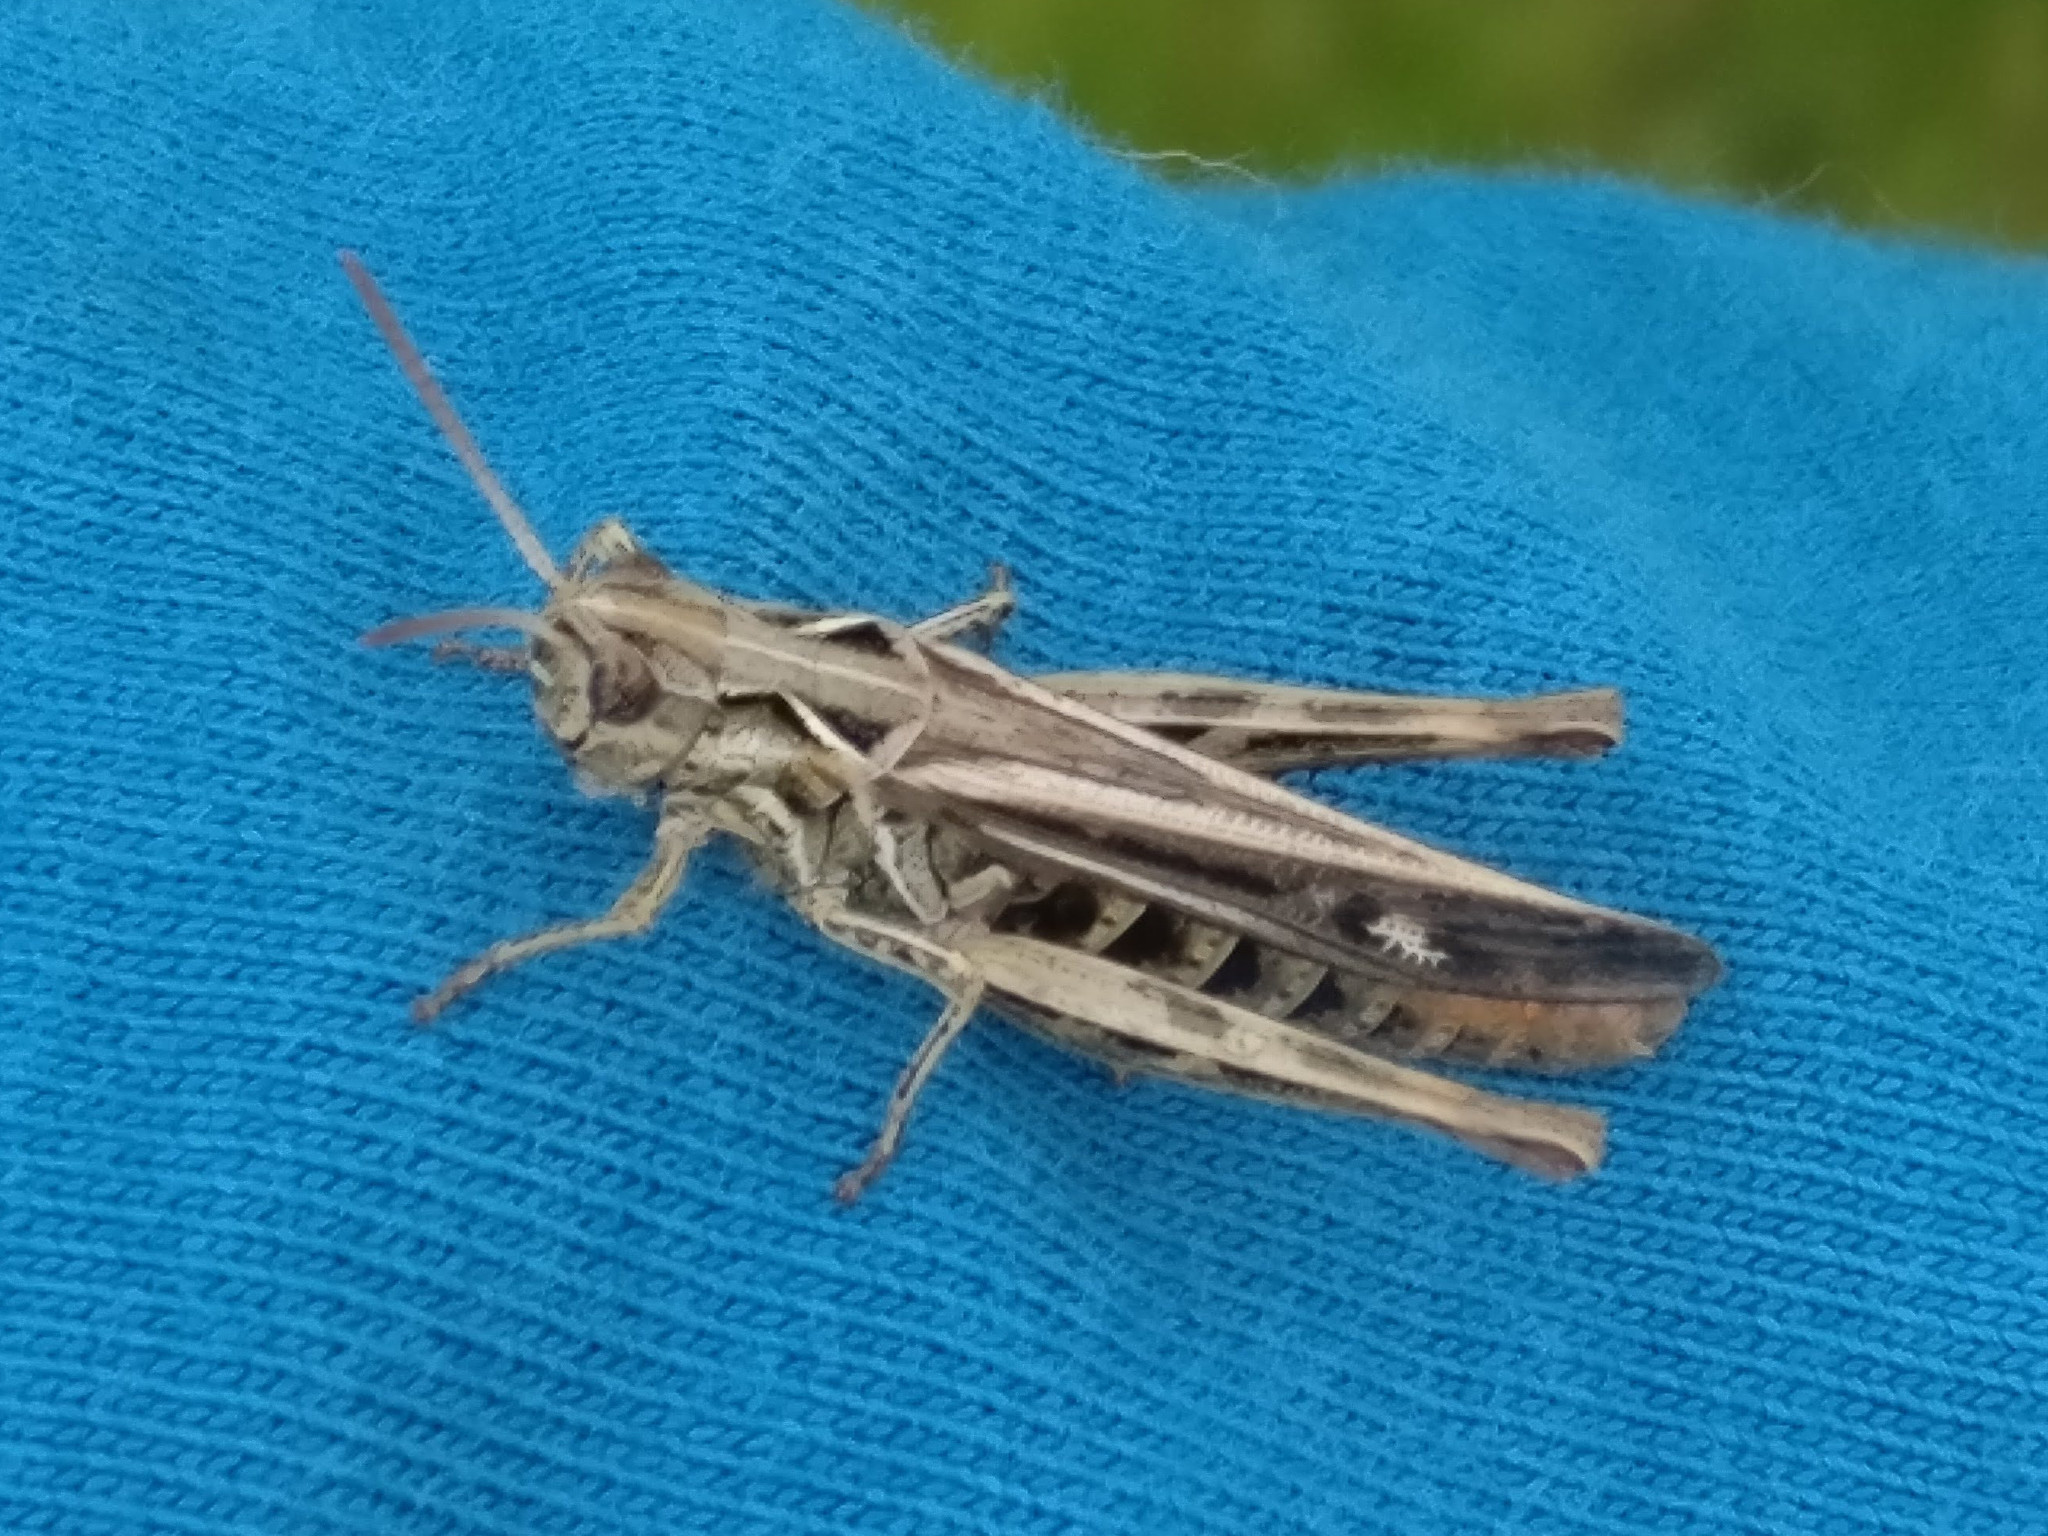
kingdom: Animalia
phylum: Arthropoda
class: Insecta
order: Orthoptera
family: Acrididae
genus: Chorthippus
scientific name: Chorthippus brunneus
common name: Field grasshopper
